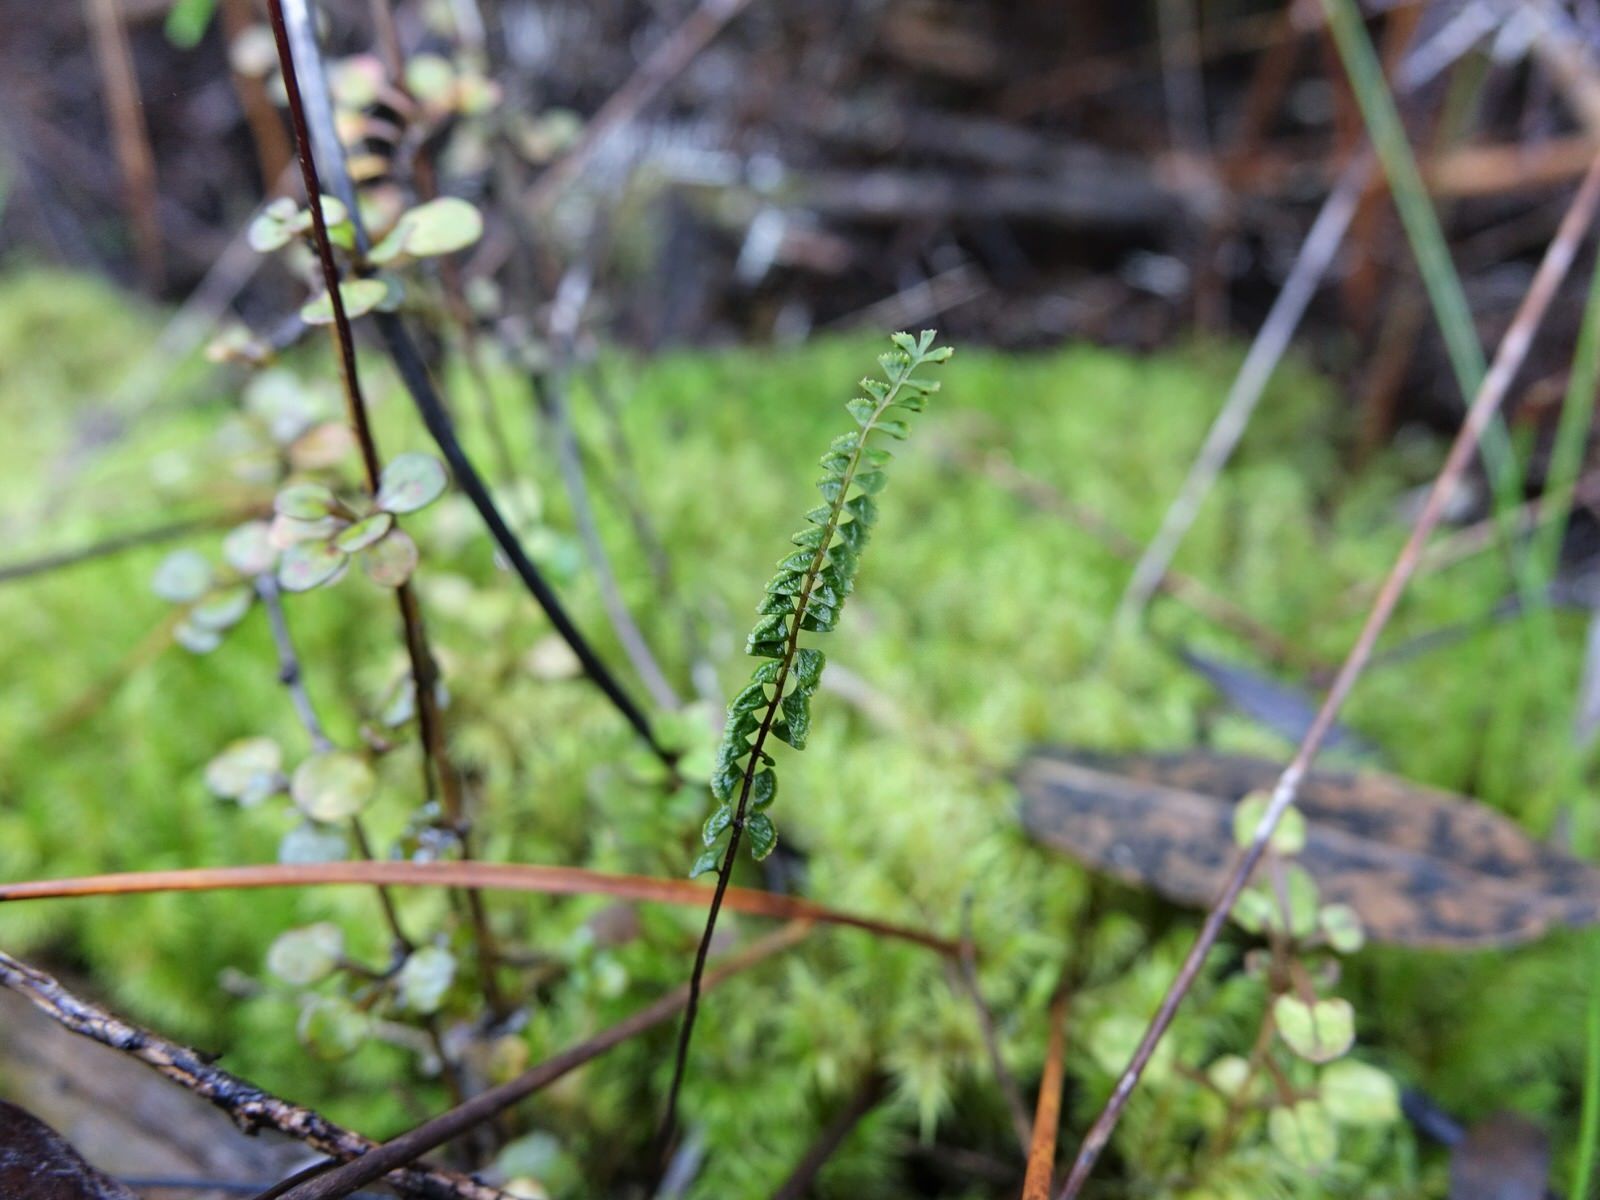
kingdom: Plantae
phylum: Tracheophyta
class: Polypodiopsida
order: Polypodiales
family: Lindsaeaceae
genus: Lindsaea
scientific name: Lindsaea linearis
